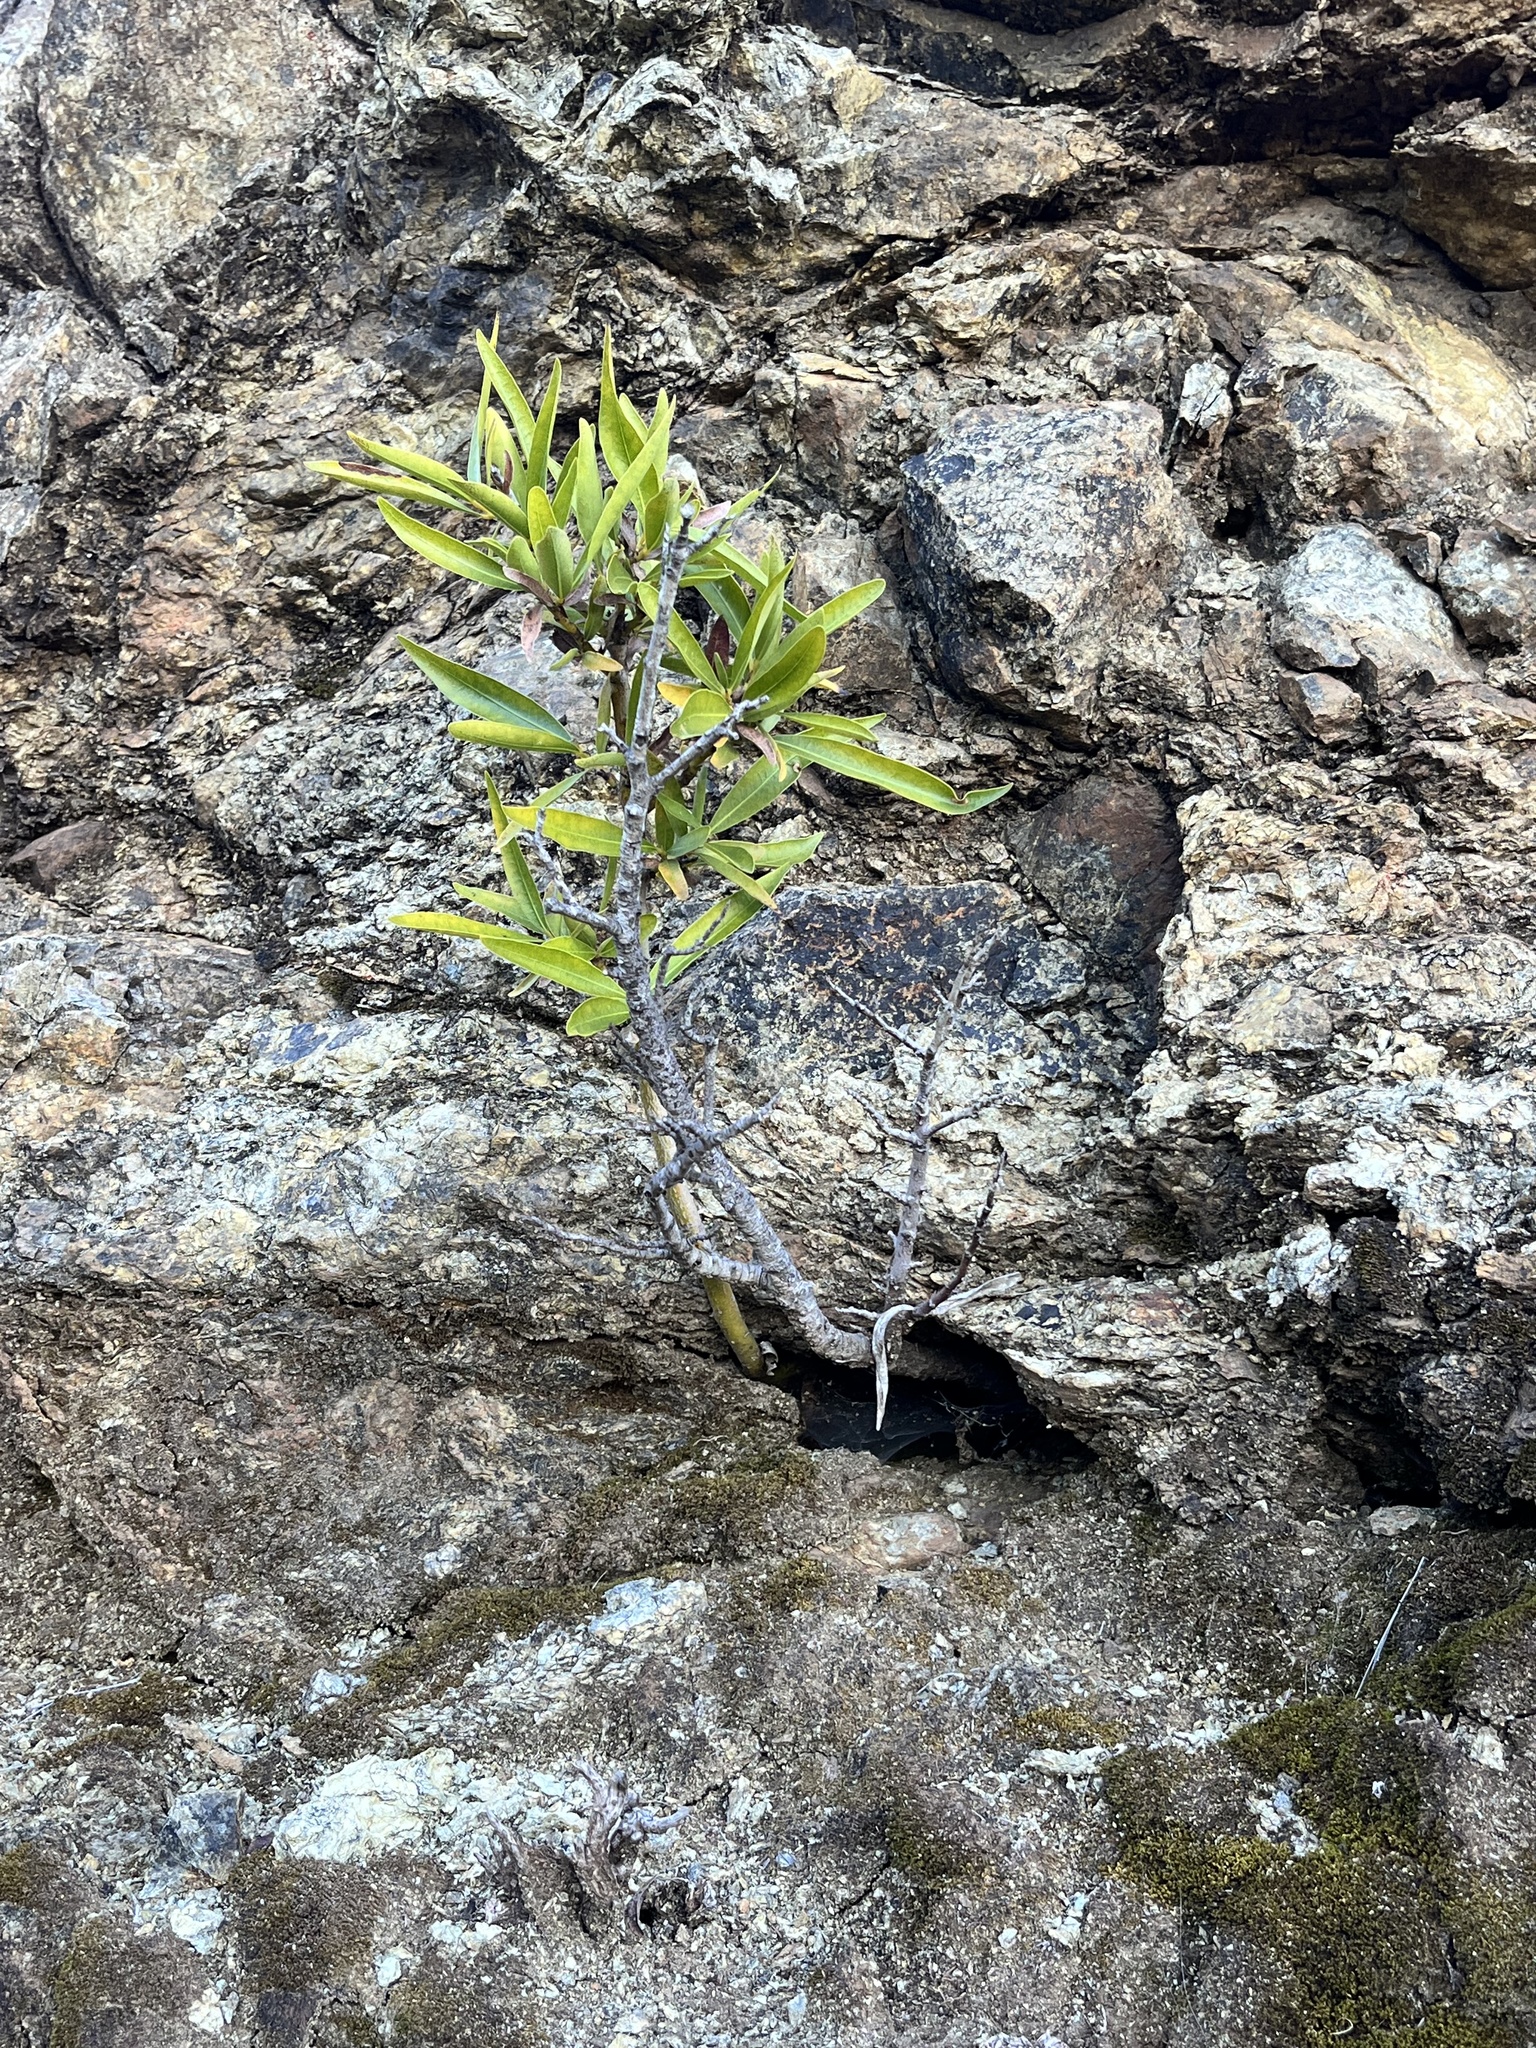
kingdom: Plantae
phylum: Tracheophyta
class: Magnoliopsida
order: Laurales
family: Lauraceae
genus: Umbellularia
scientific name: Umbellularia californica
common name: California bay
